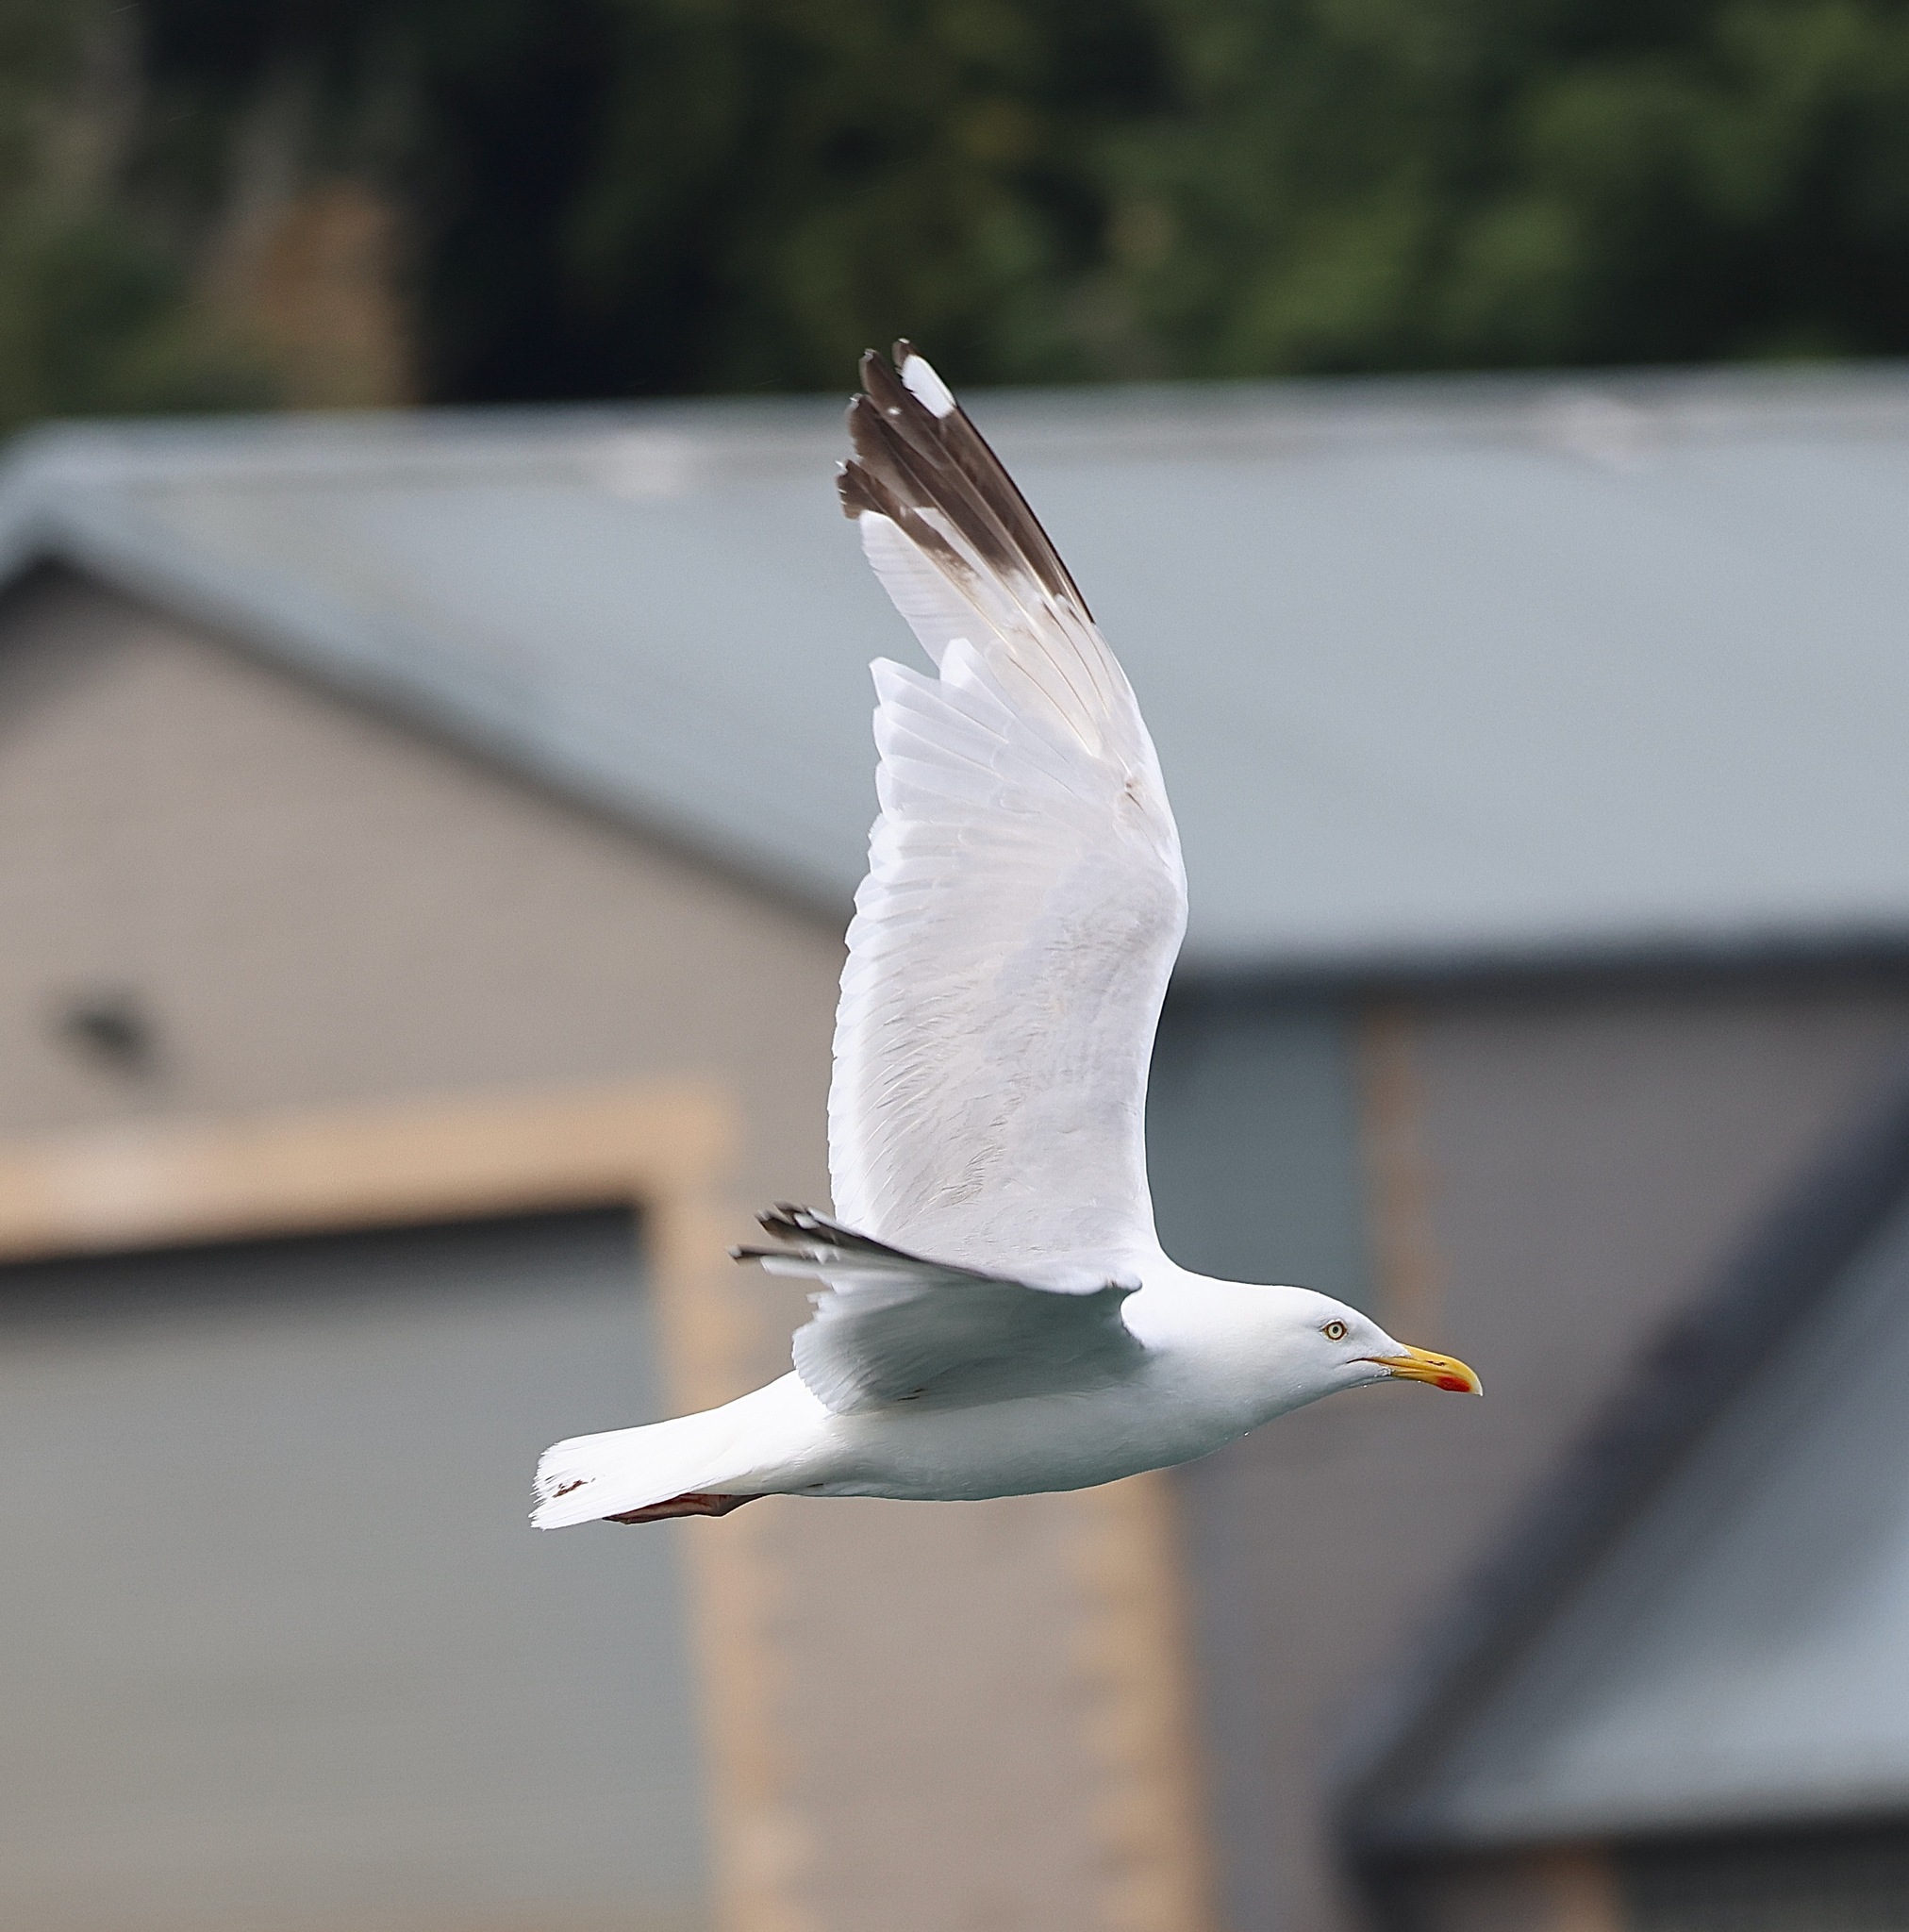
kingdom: Animalia
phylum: Chordata
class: Aves
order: Charadriiformes
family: Laridae
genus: Larus
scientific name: Larus argentatus
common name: Herring gull
